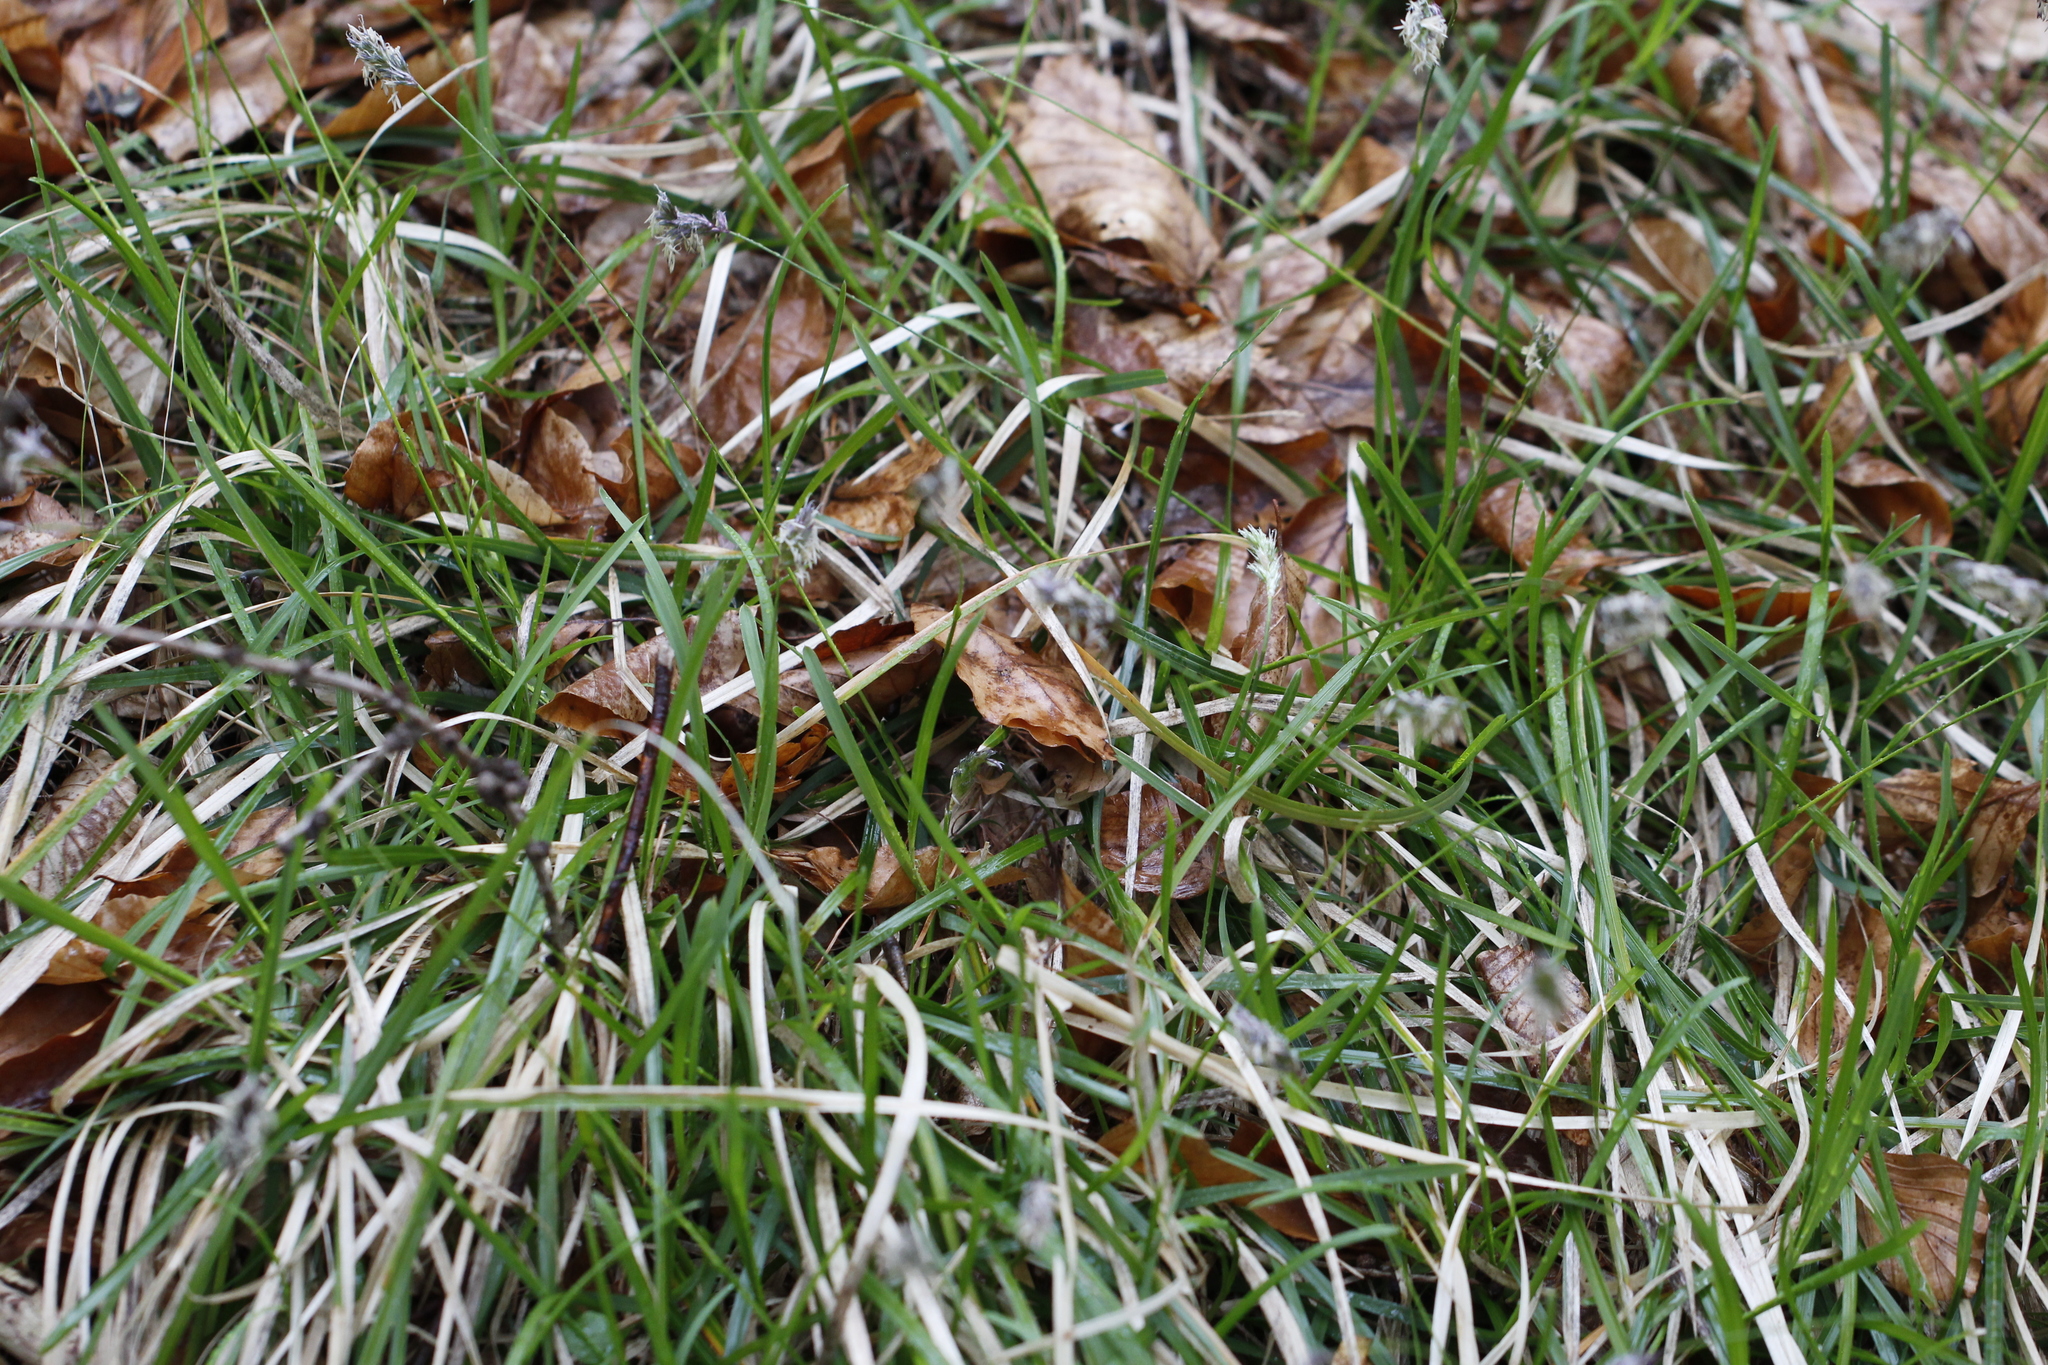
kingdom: Plantae
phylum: Tracheophyta
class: Liliopsida
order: Poales
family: Poaceae
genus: Sesleria
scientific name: Sesleria albicans
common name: Blue moor-grass
